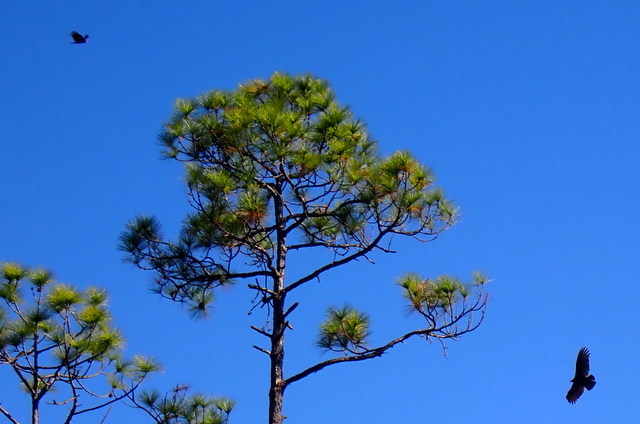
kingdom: Animalia
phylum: Chordata
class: Aves
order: Accipitriformes
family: Cathartidae
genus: Cathartes
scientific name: Cathartes aura
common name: Turkey vulture
